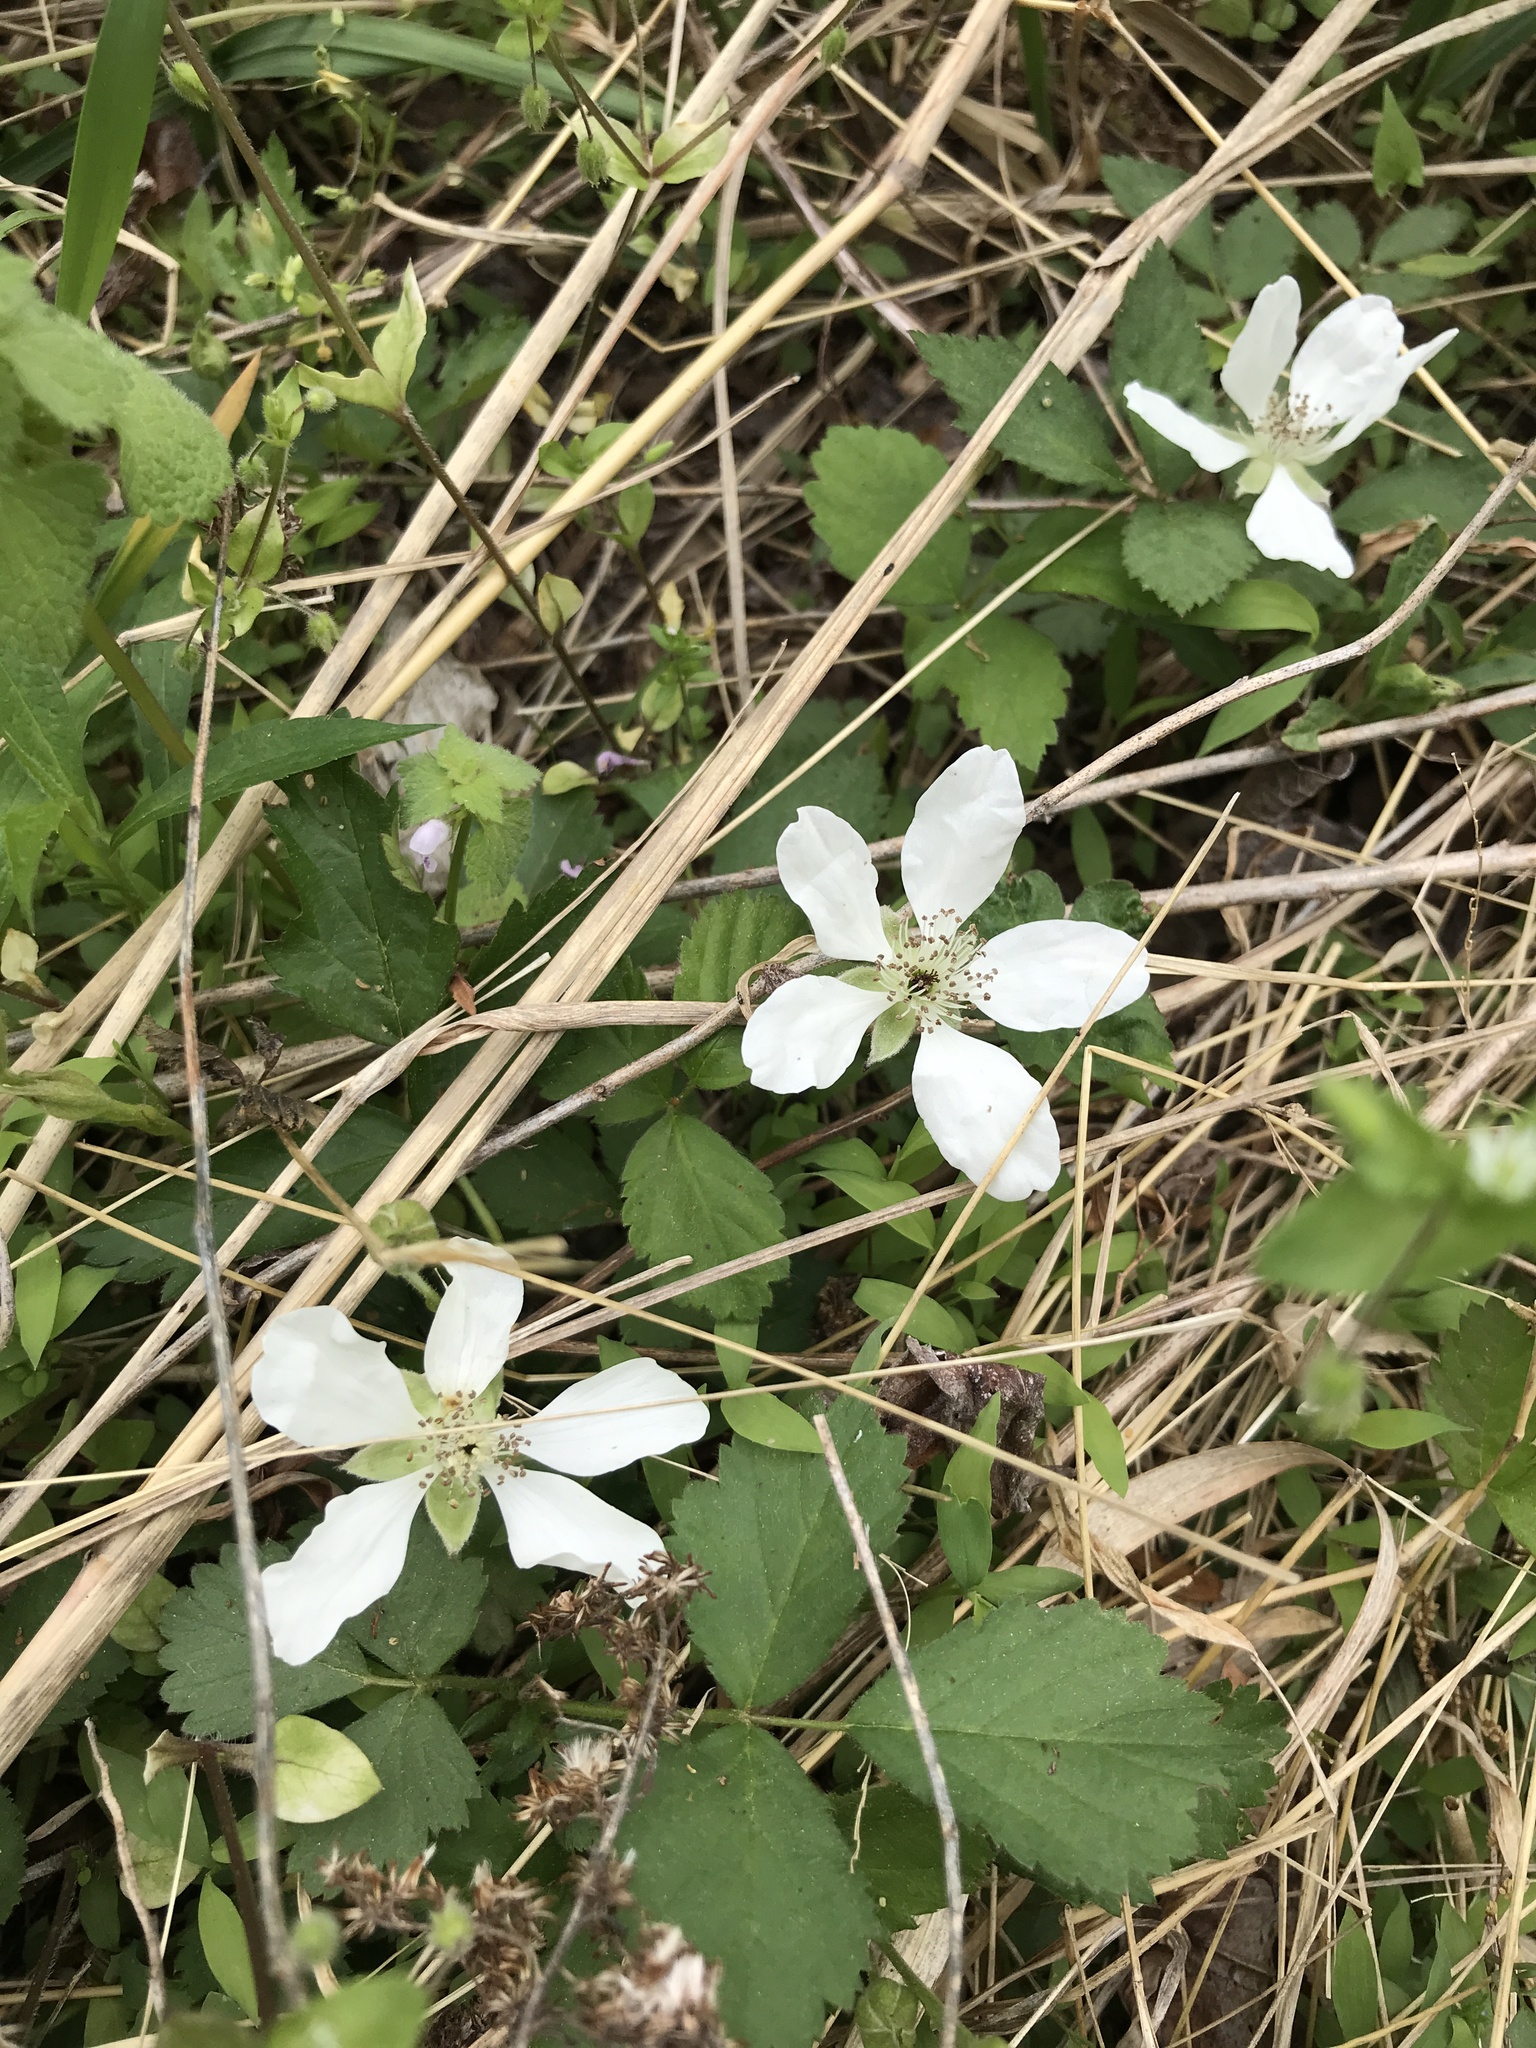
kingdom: Plantae
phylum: Tracheophyta
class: Magnoliopsida
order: Rosales
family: Rosaceae
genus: Rubus
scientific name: Rubus flagellaris
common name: American dewberry
